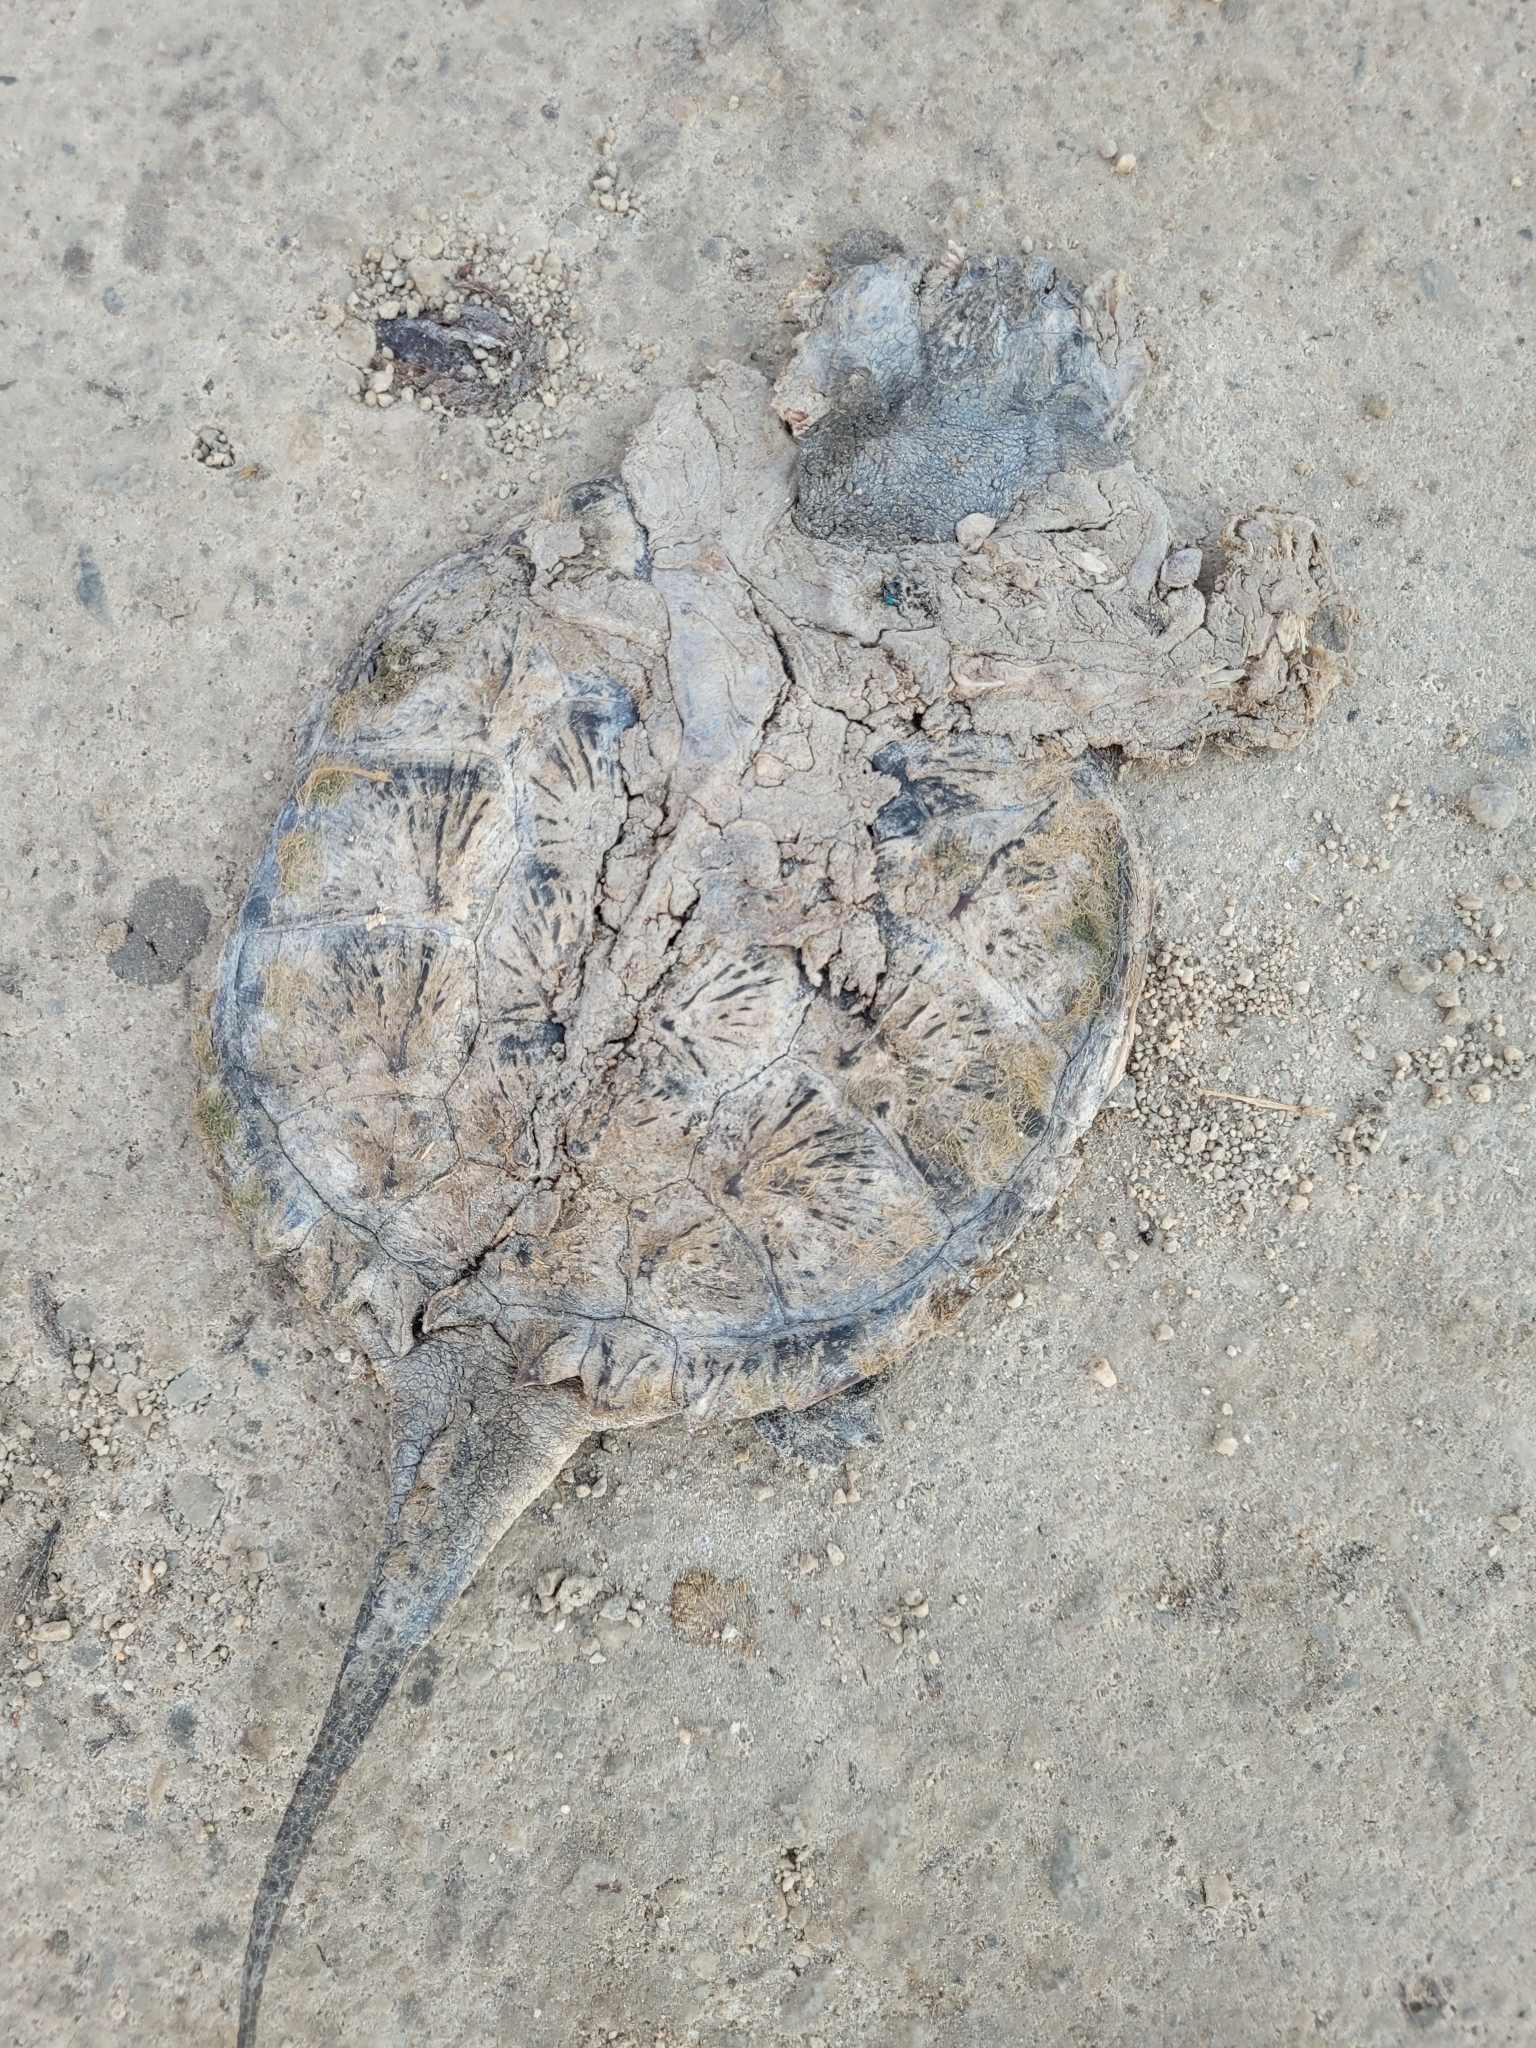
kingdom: Animalia
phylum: Chordata
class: Testudines
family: Chelydridae
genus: Chelydra
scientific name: Chelydra serpentina
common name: Common snapping turtle
